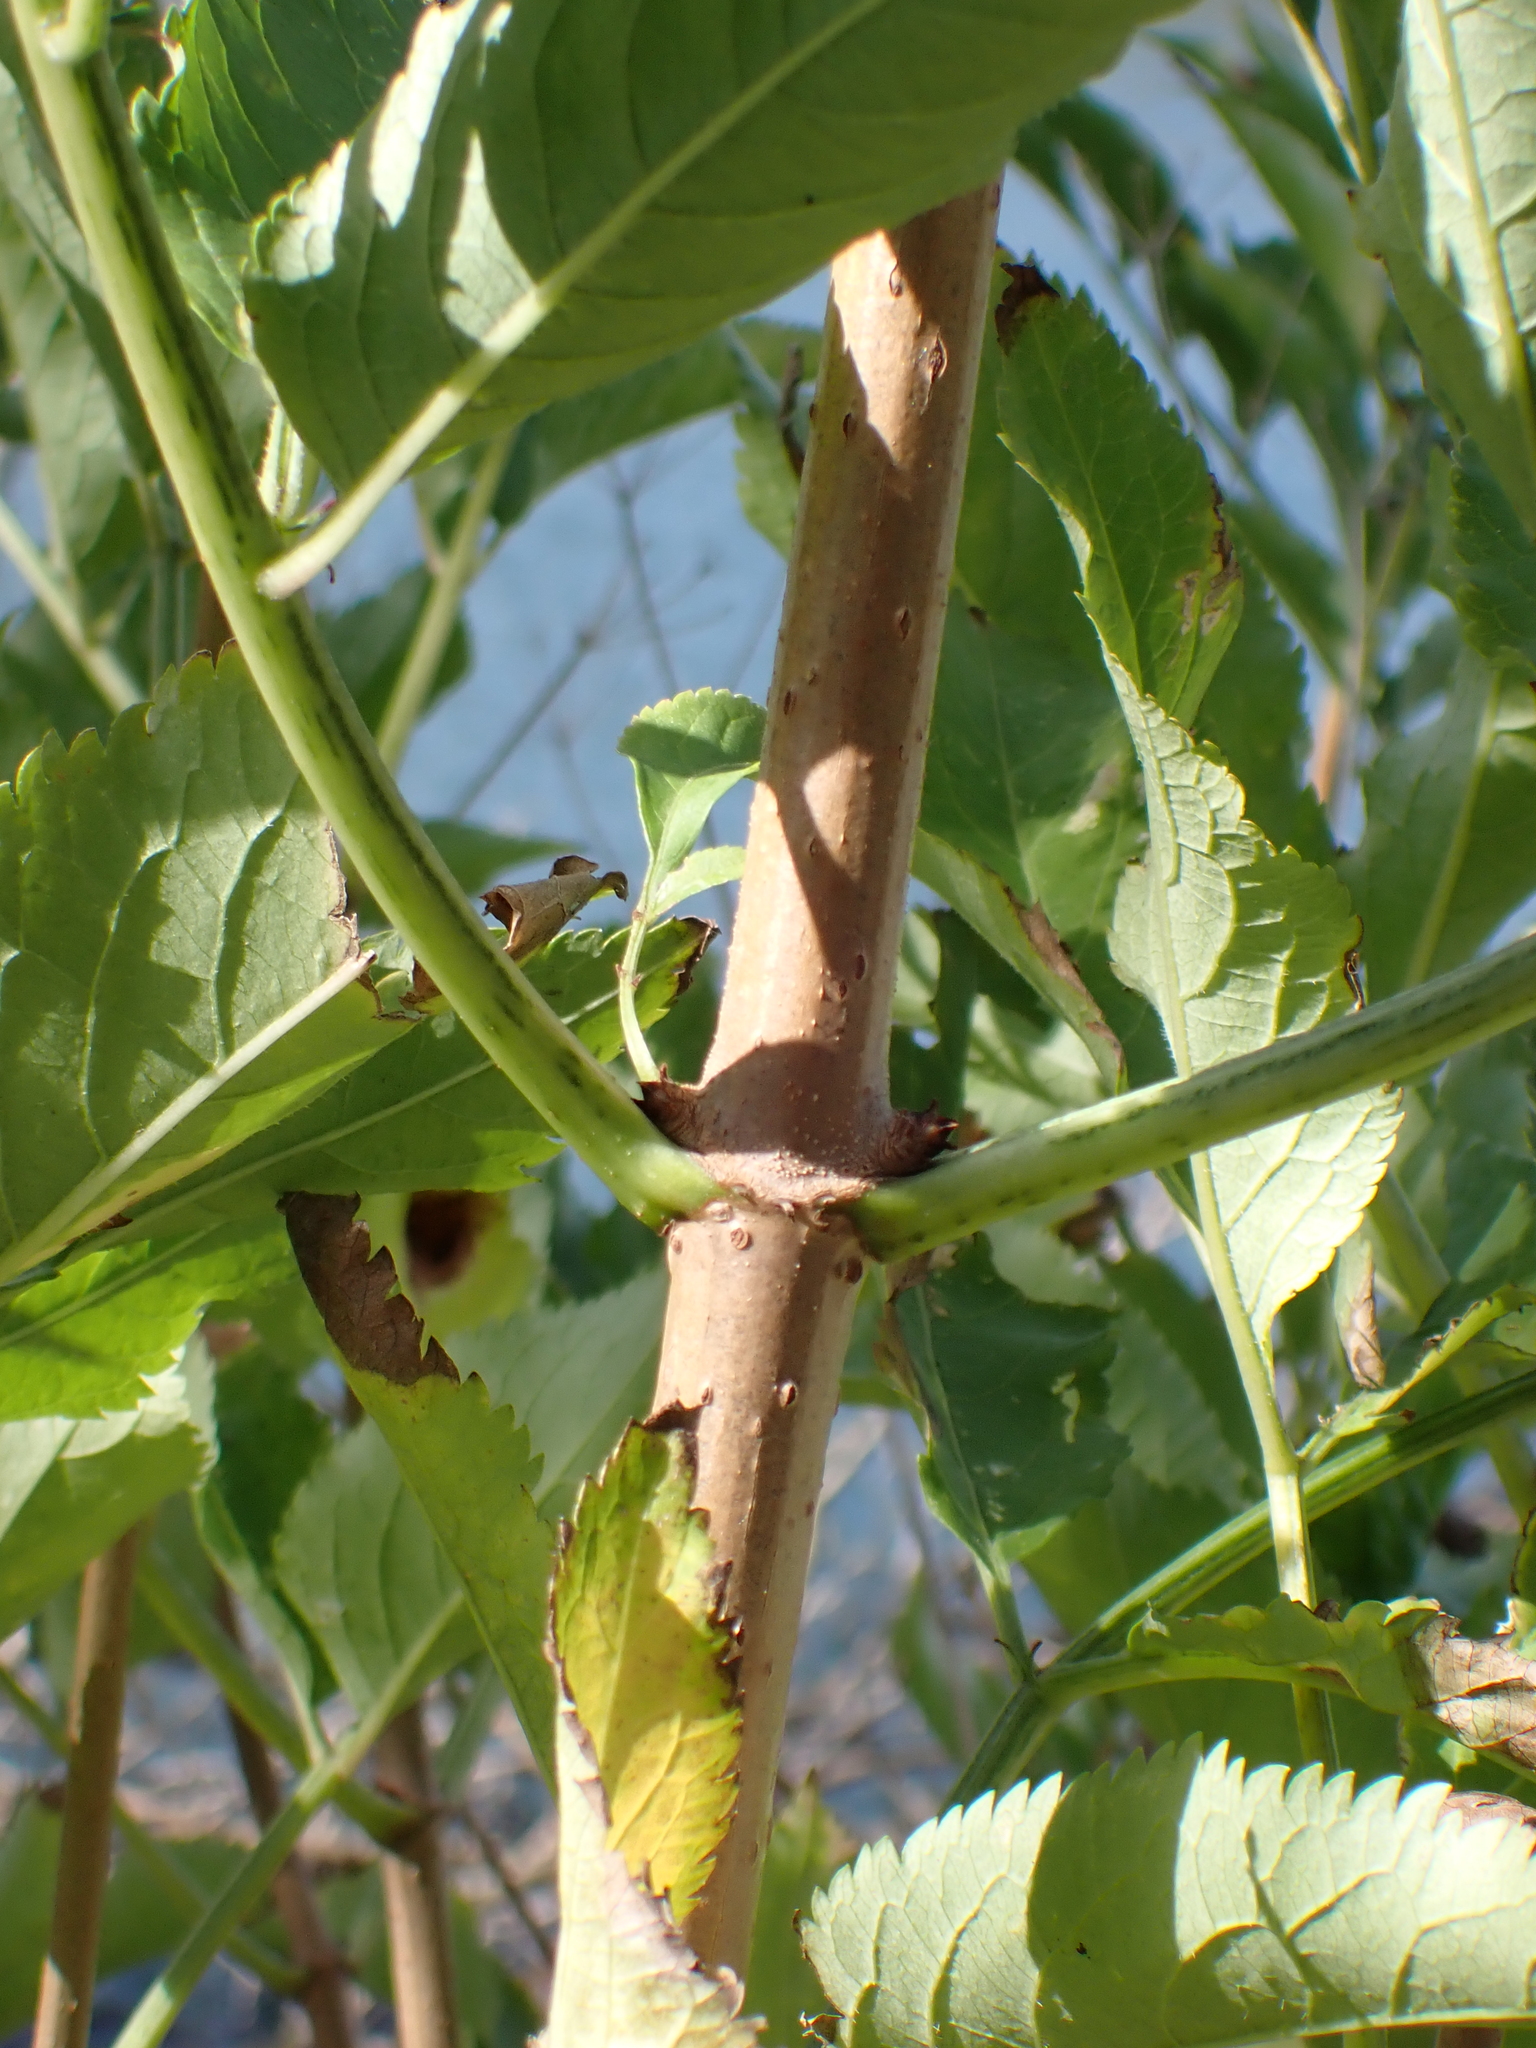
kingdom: Plantae
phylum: Tracheophyta
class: Magnoliopsida
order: Dipsacales
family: Viburnaceae
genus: Sambucus
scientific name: Sambucus nigra
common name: Elder
